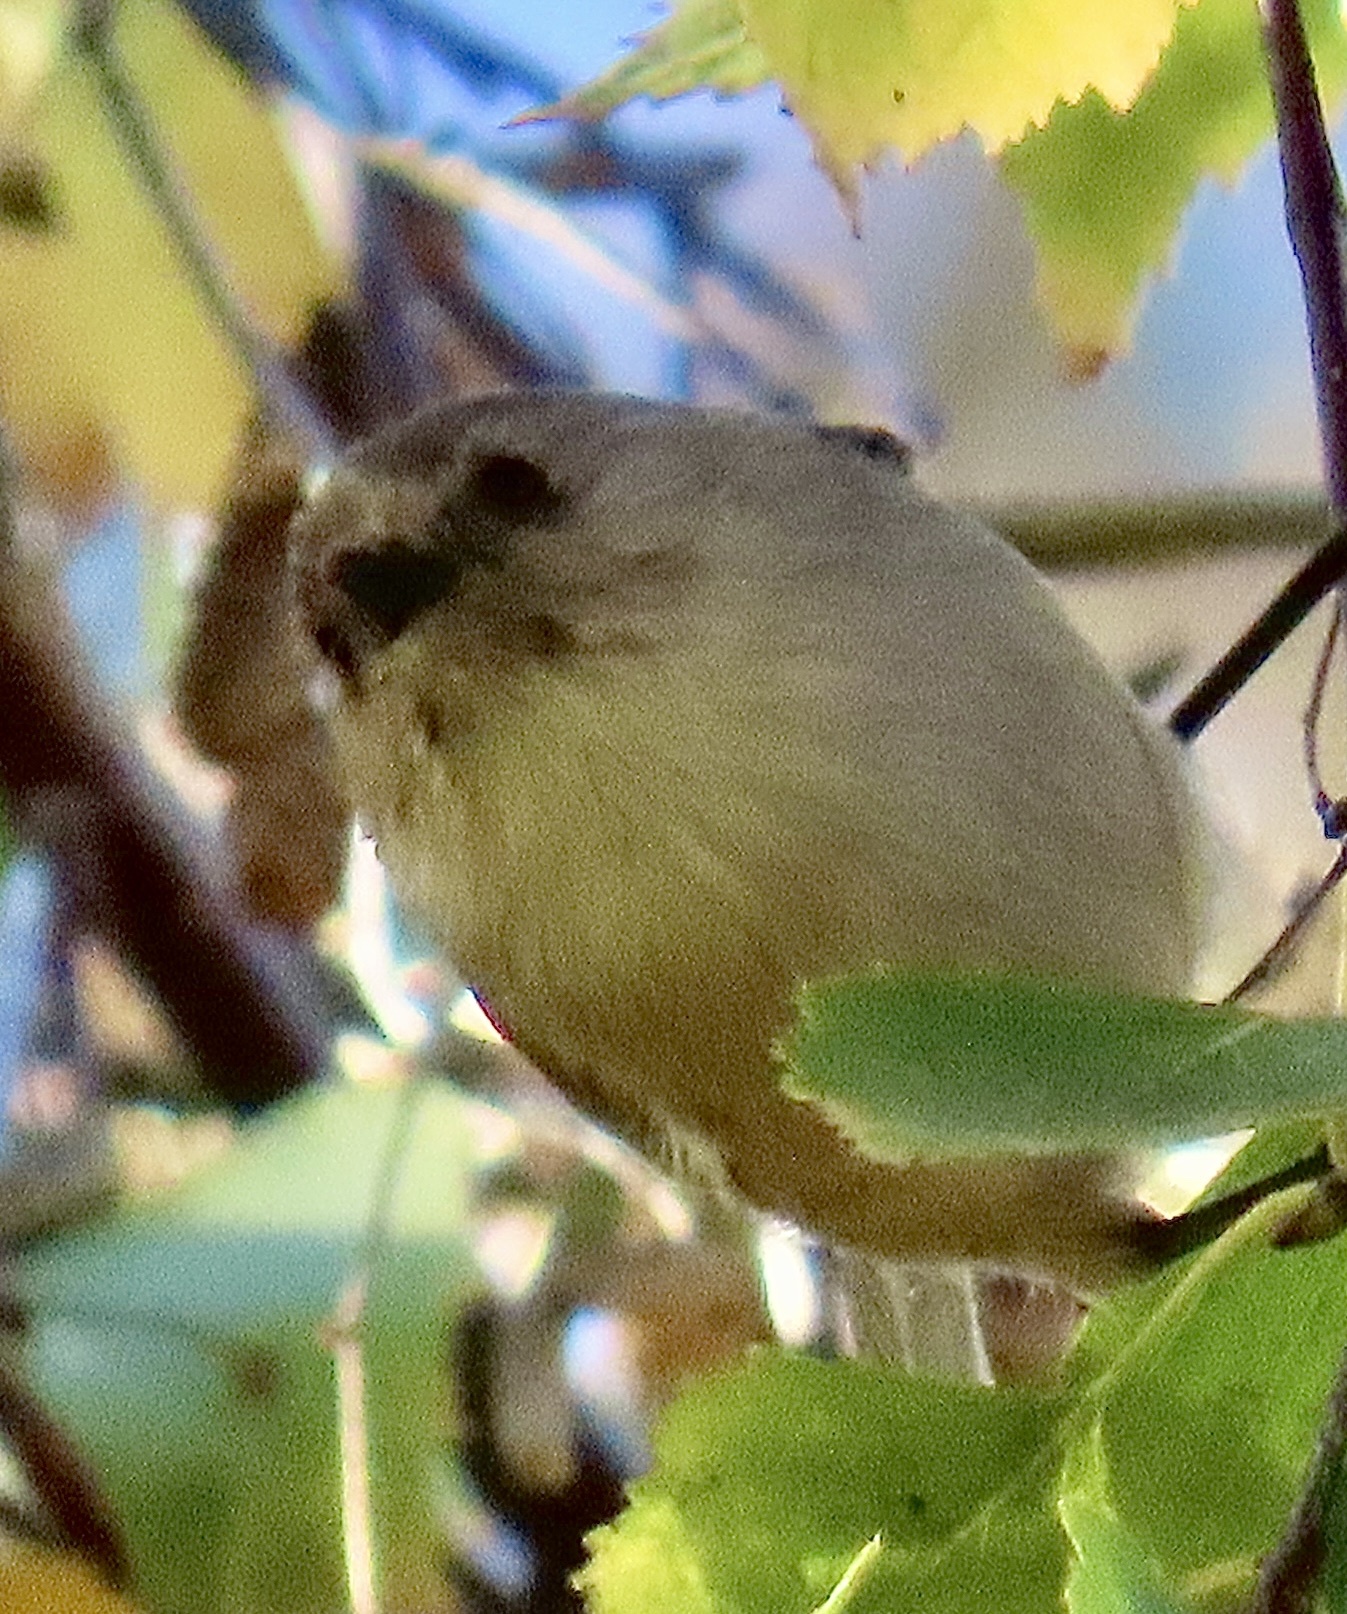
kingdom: Animalia
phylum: Chordata
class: Aves
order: Passeriformes
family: Aegithalidae
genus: Psaltriparus
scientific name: Psaltriparus minimus
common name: American bushtit
